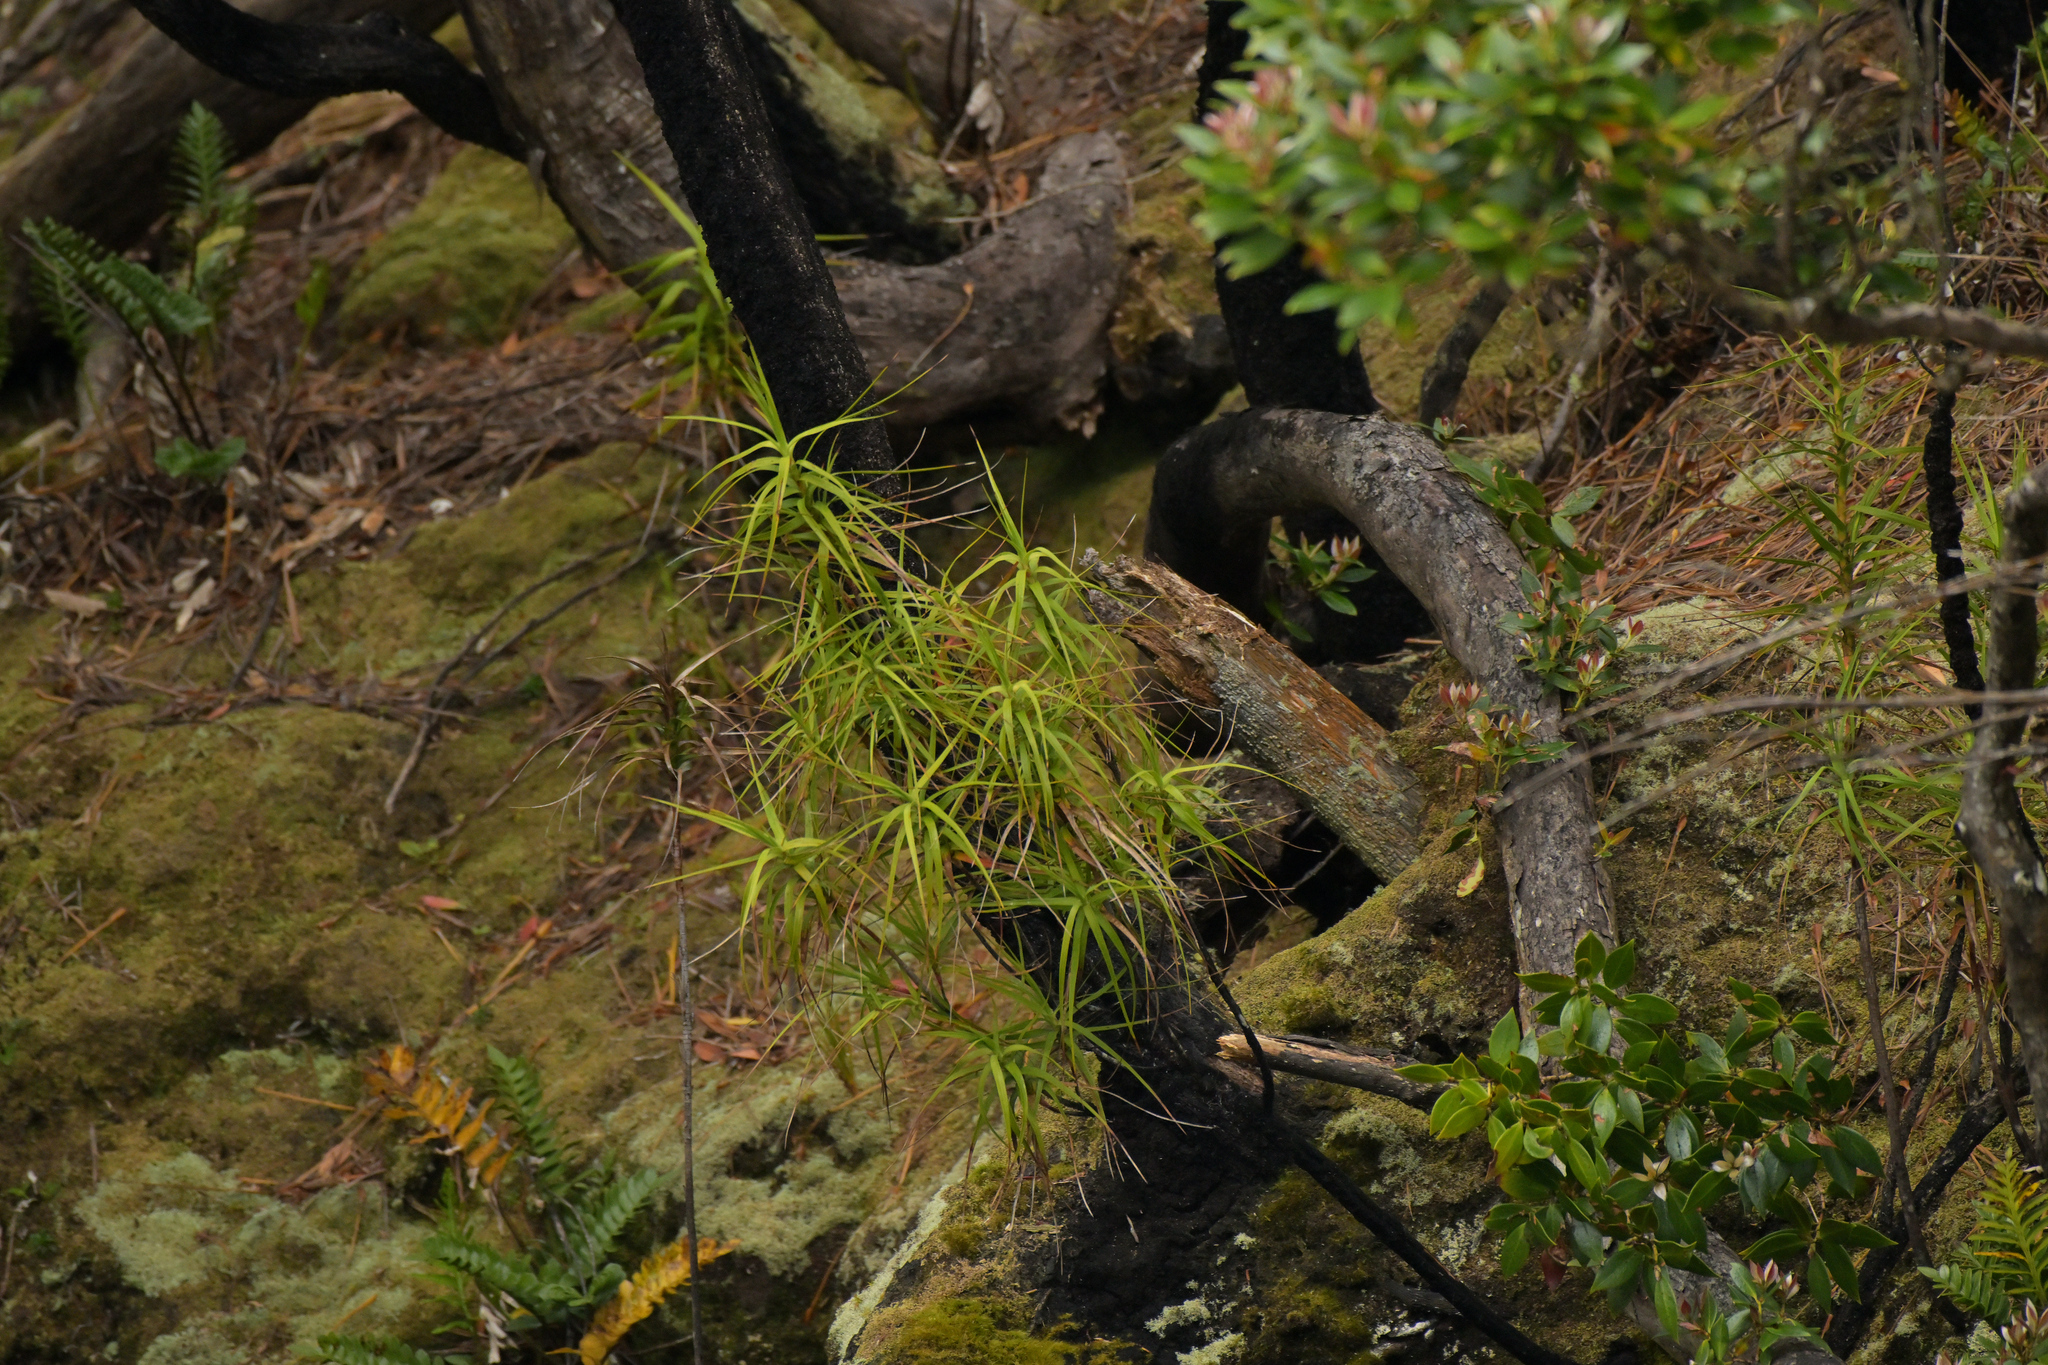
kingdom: Plantae
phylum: Tracheophyta
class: Magnoliopsida
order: Ericales
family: Ericaceae
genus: Dracophyllum
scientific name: Dracophyllum longifolium
